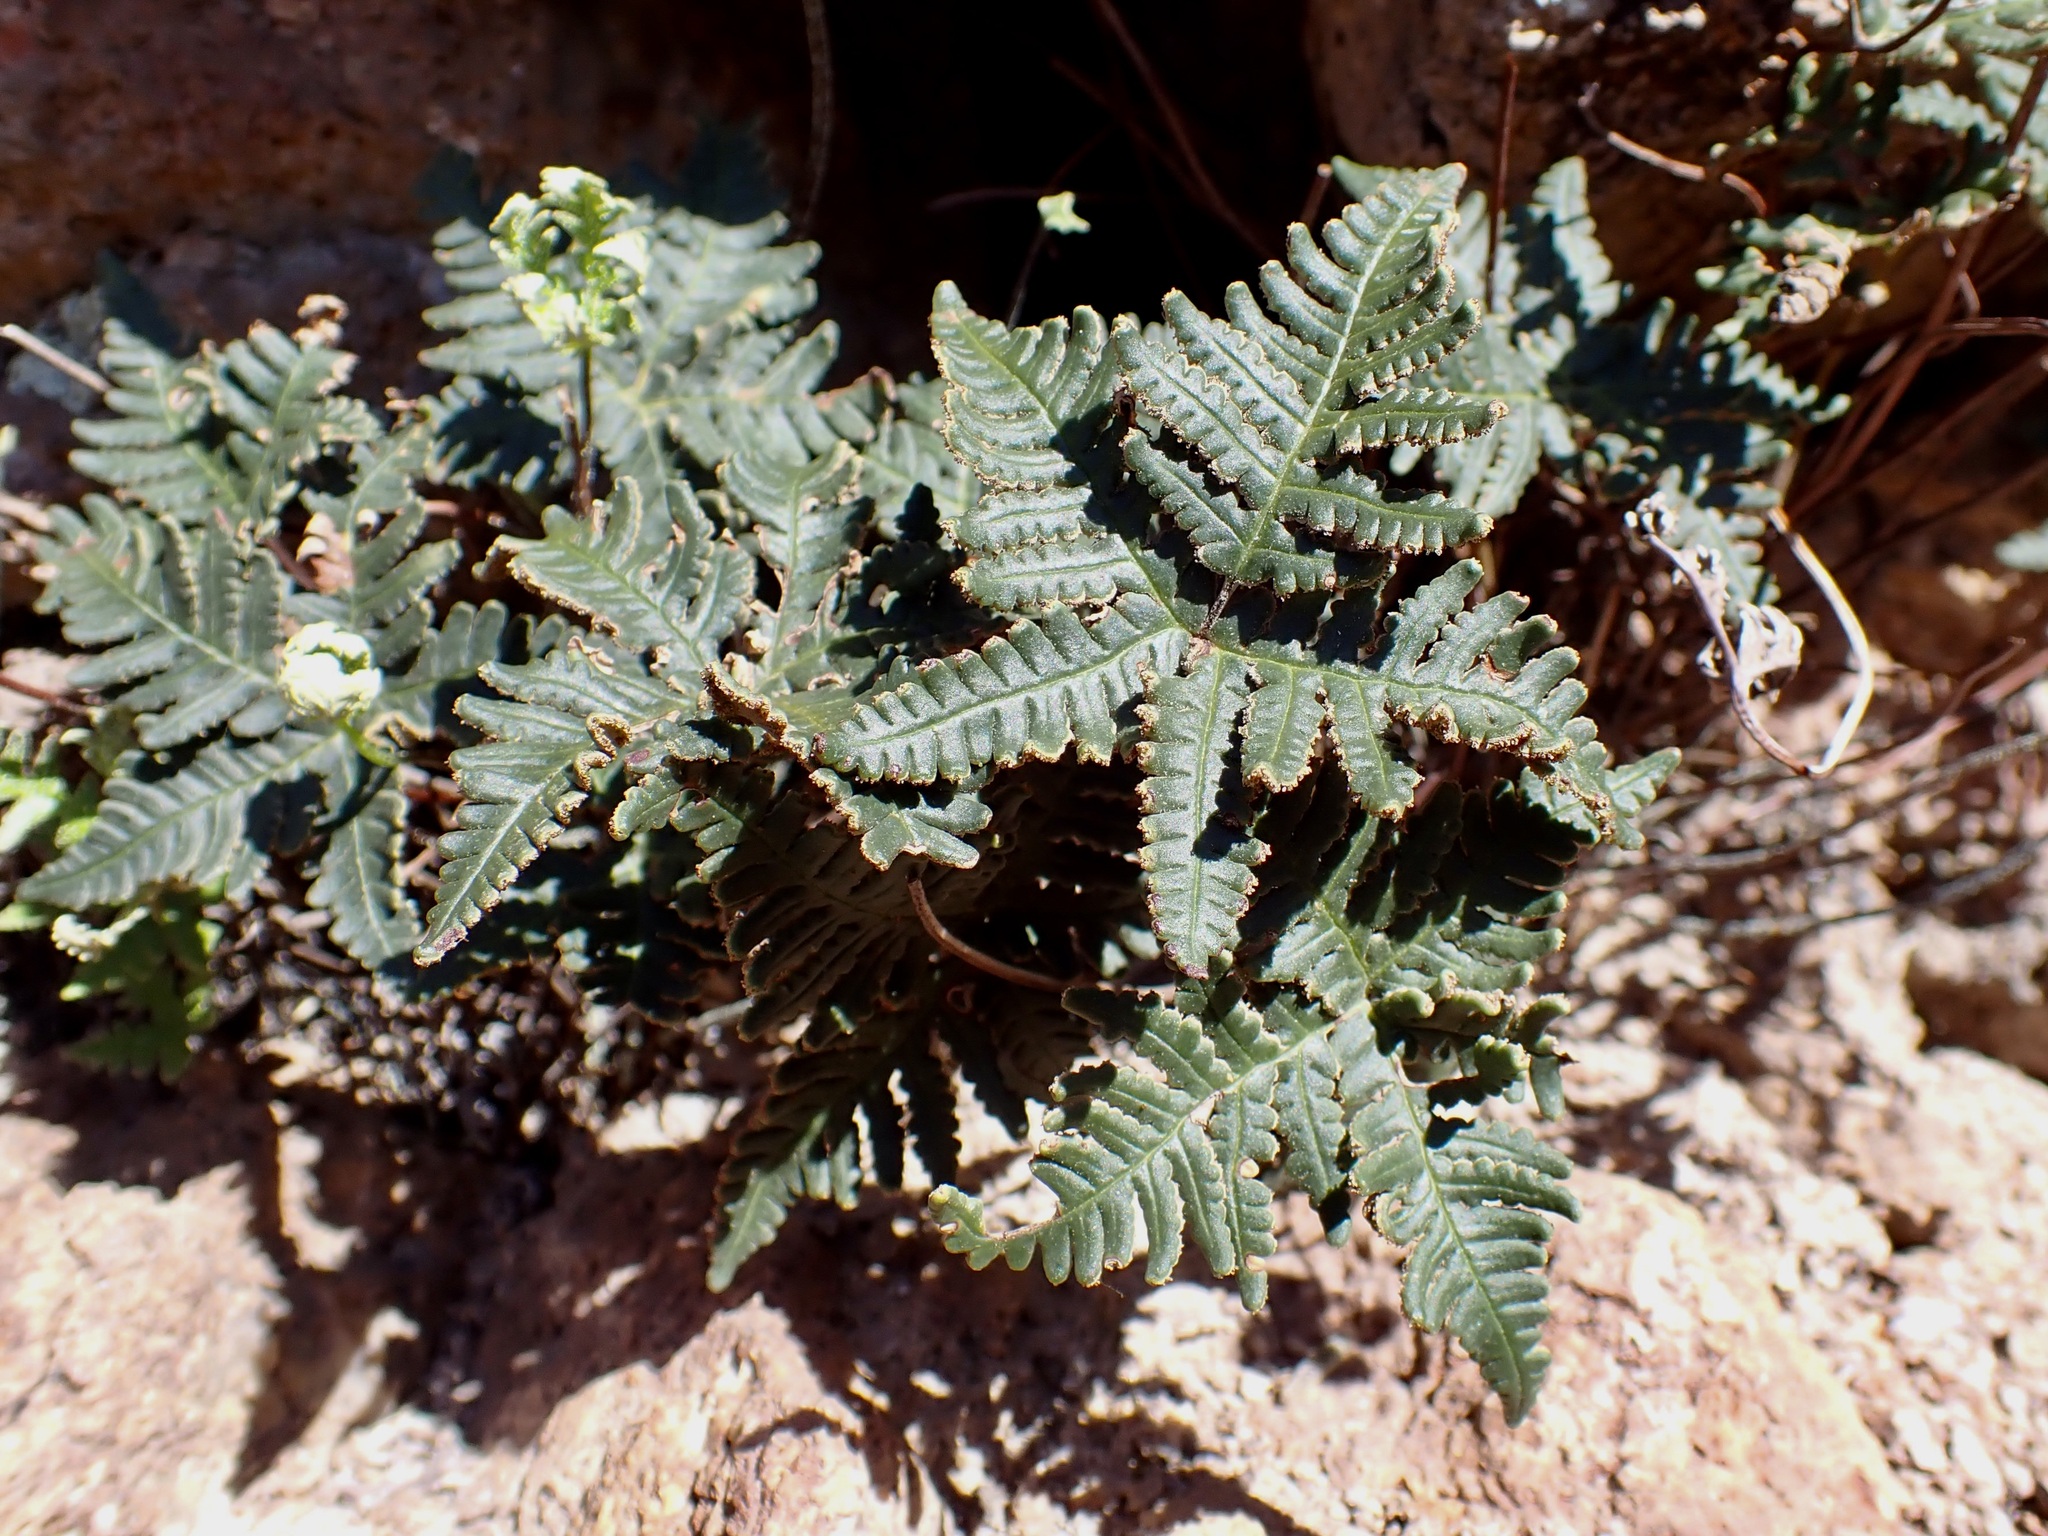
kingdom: Plantae
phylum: Tracheophyta
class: Polypodiopsida
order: Polypodiales
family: Pteridaceae
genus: Notholaena
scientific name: Notholaena standleyi
